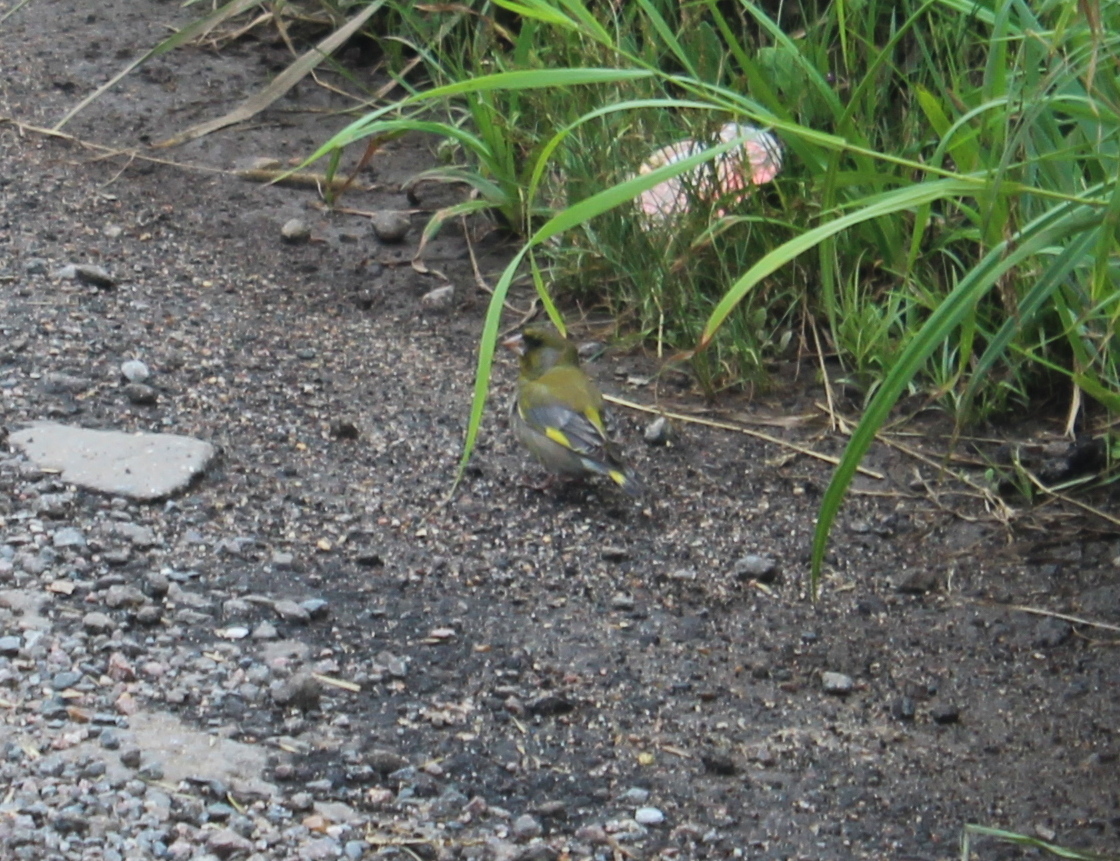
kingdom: Plantae
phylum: Tracheophyta
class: Liliopsida
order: Poales
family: Poaceae
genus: Chloris
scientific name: Chloris chloris
